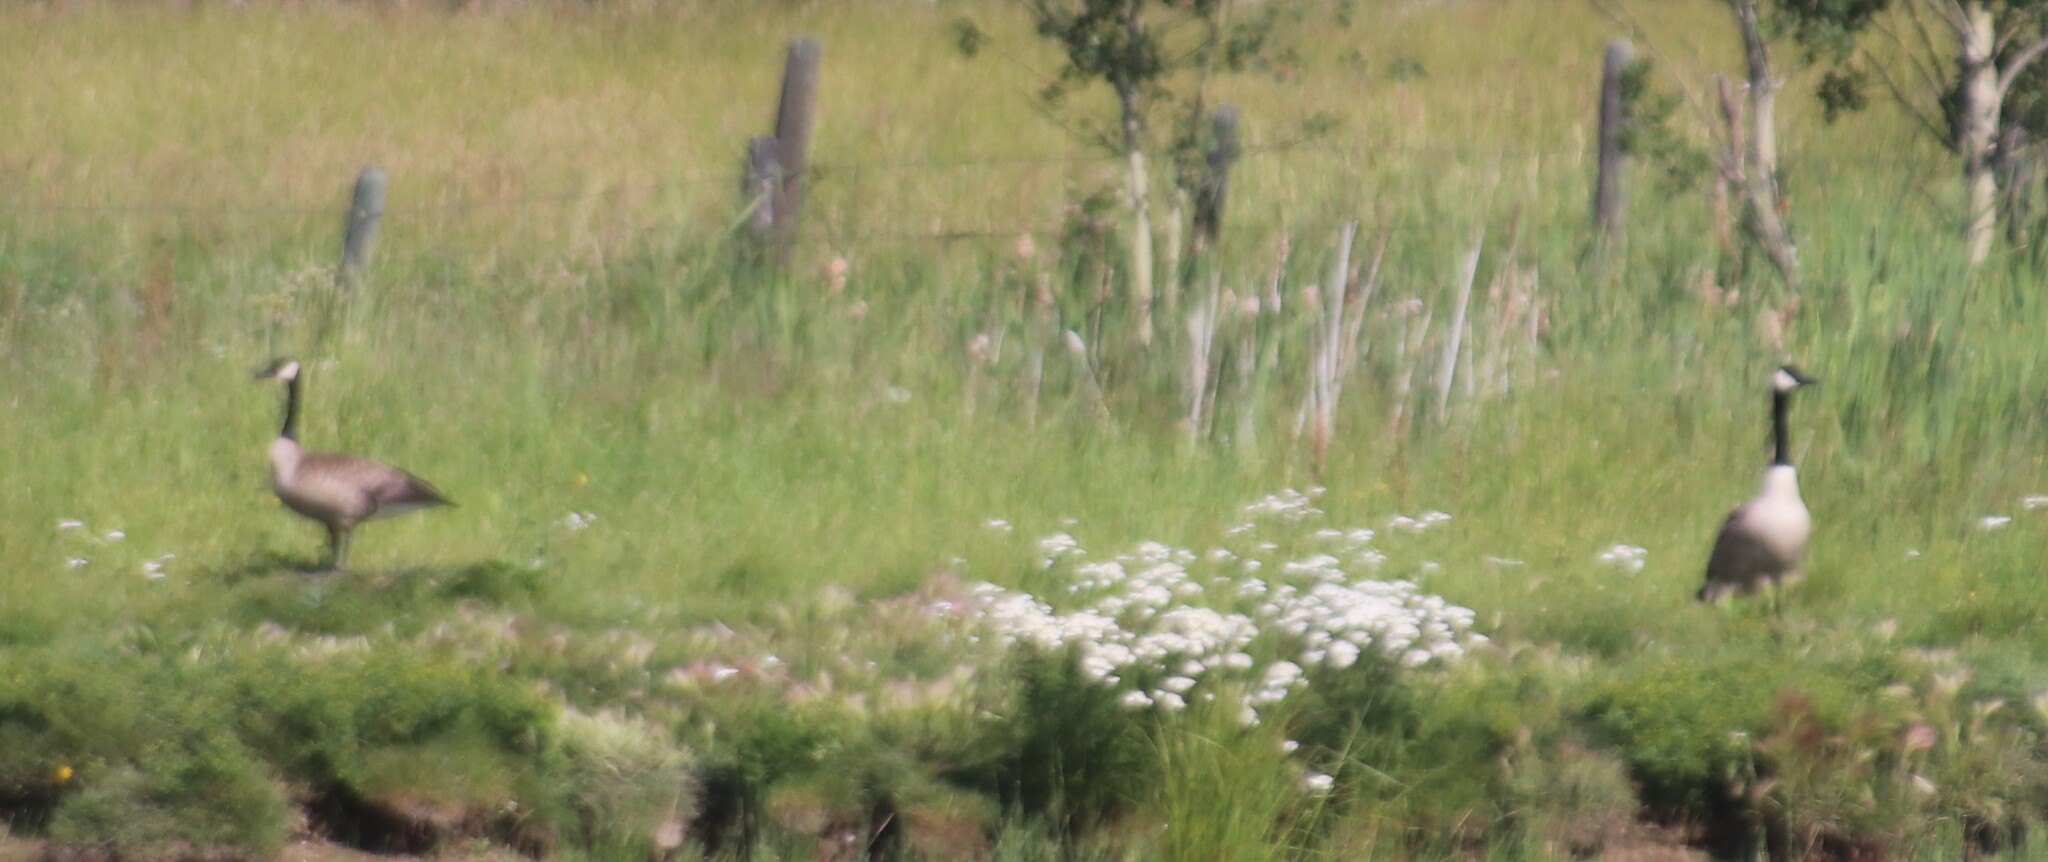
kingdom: Animalia
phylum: Chordata
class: Aves
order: Anseriformes
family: Anatidae
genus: Branta
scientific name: Branta canadensis
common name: Canada goose
